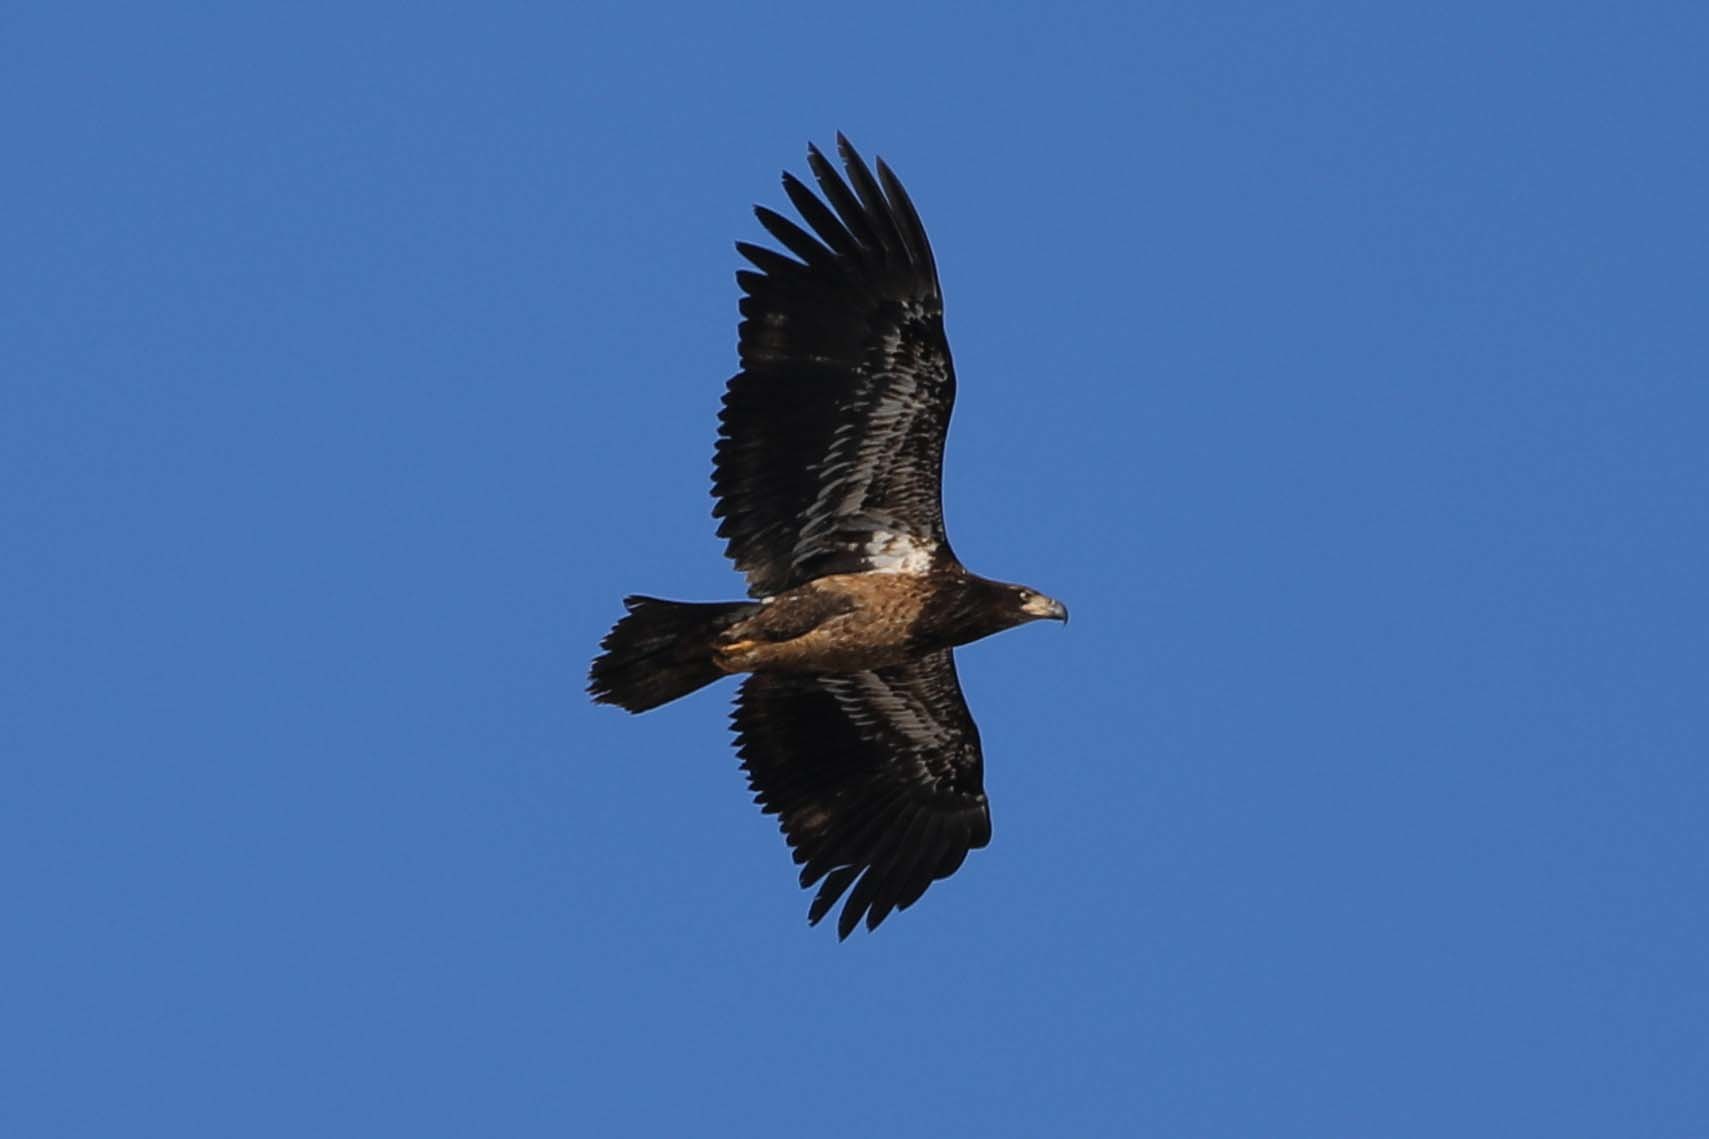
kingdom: Animalia
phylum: Chordata
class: Aves
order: Accipitriformes
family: Accipitridae
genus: Haliaeetus
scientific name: Haliaeetus leucocephalus
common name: Bald eagle
